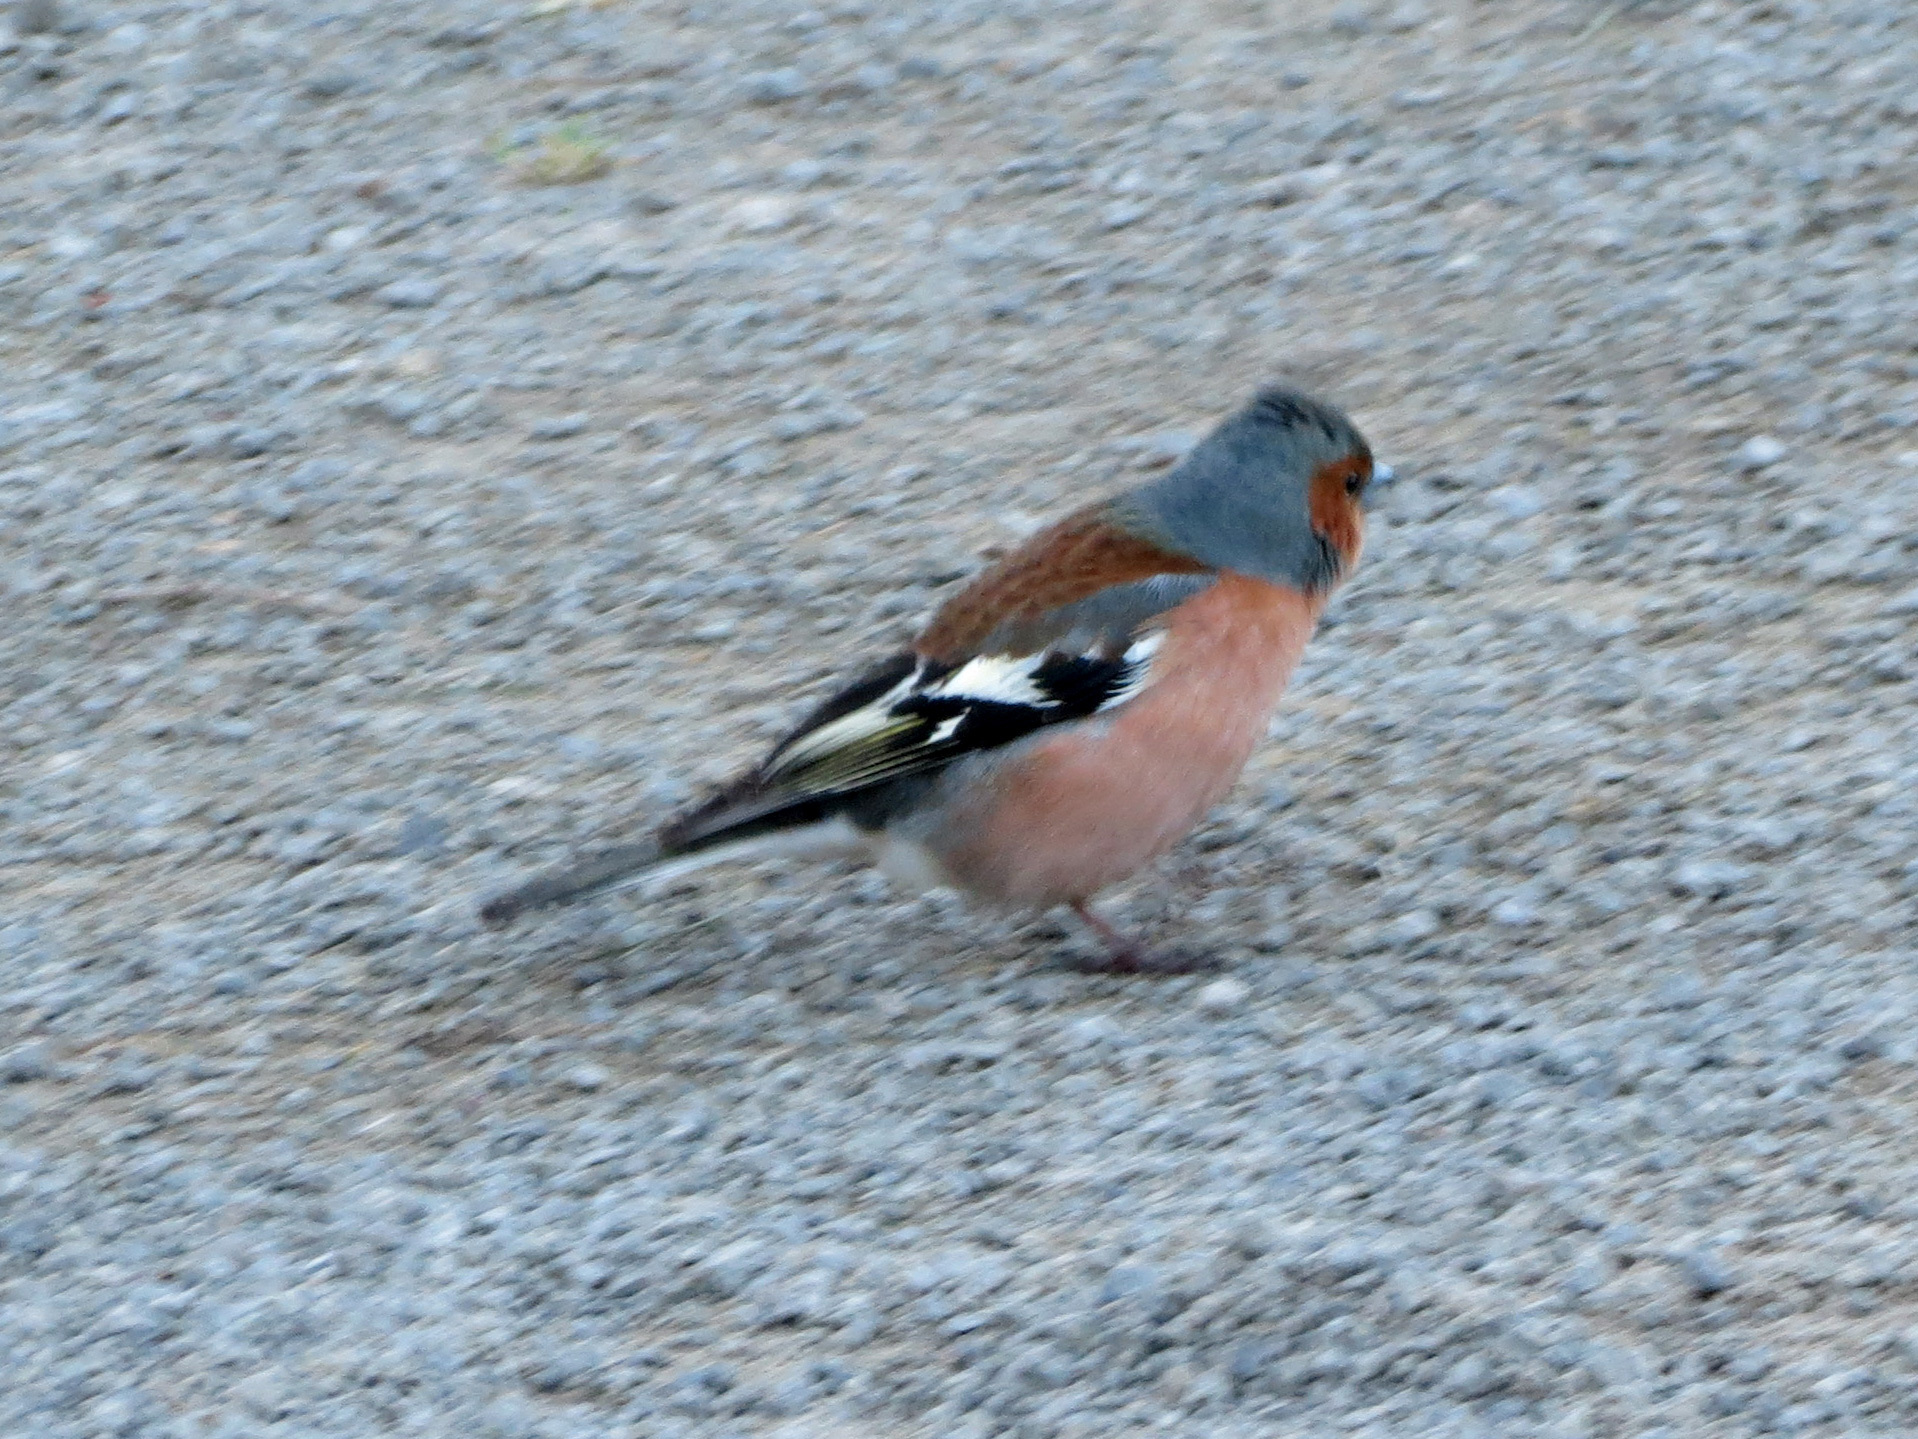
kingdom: Animalia
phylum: Chordata
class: Aves
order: Passeriformes
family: Fringillidae
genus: Fringilla
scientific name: Fringilla coelebs
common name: Common chaffinch
